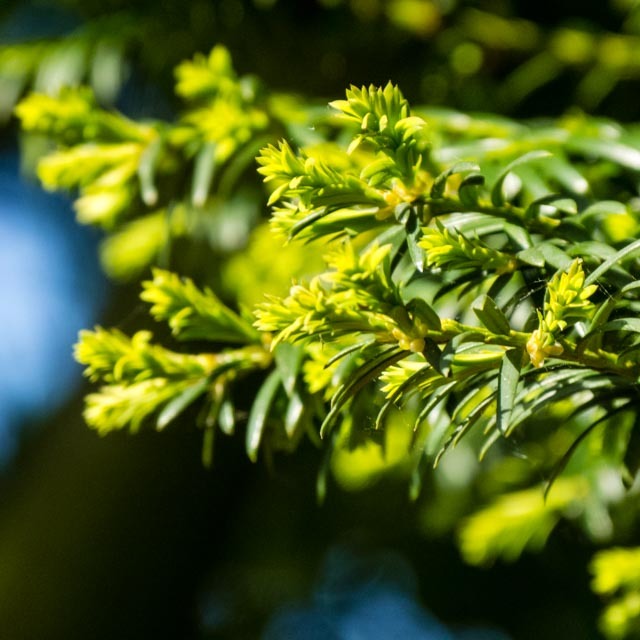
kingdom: Plantae
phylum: Tracheophyta
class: Pinopsida
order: Pinales
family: Taxaceae
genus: Taxus
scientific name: Taxus baccata
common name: Yew
